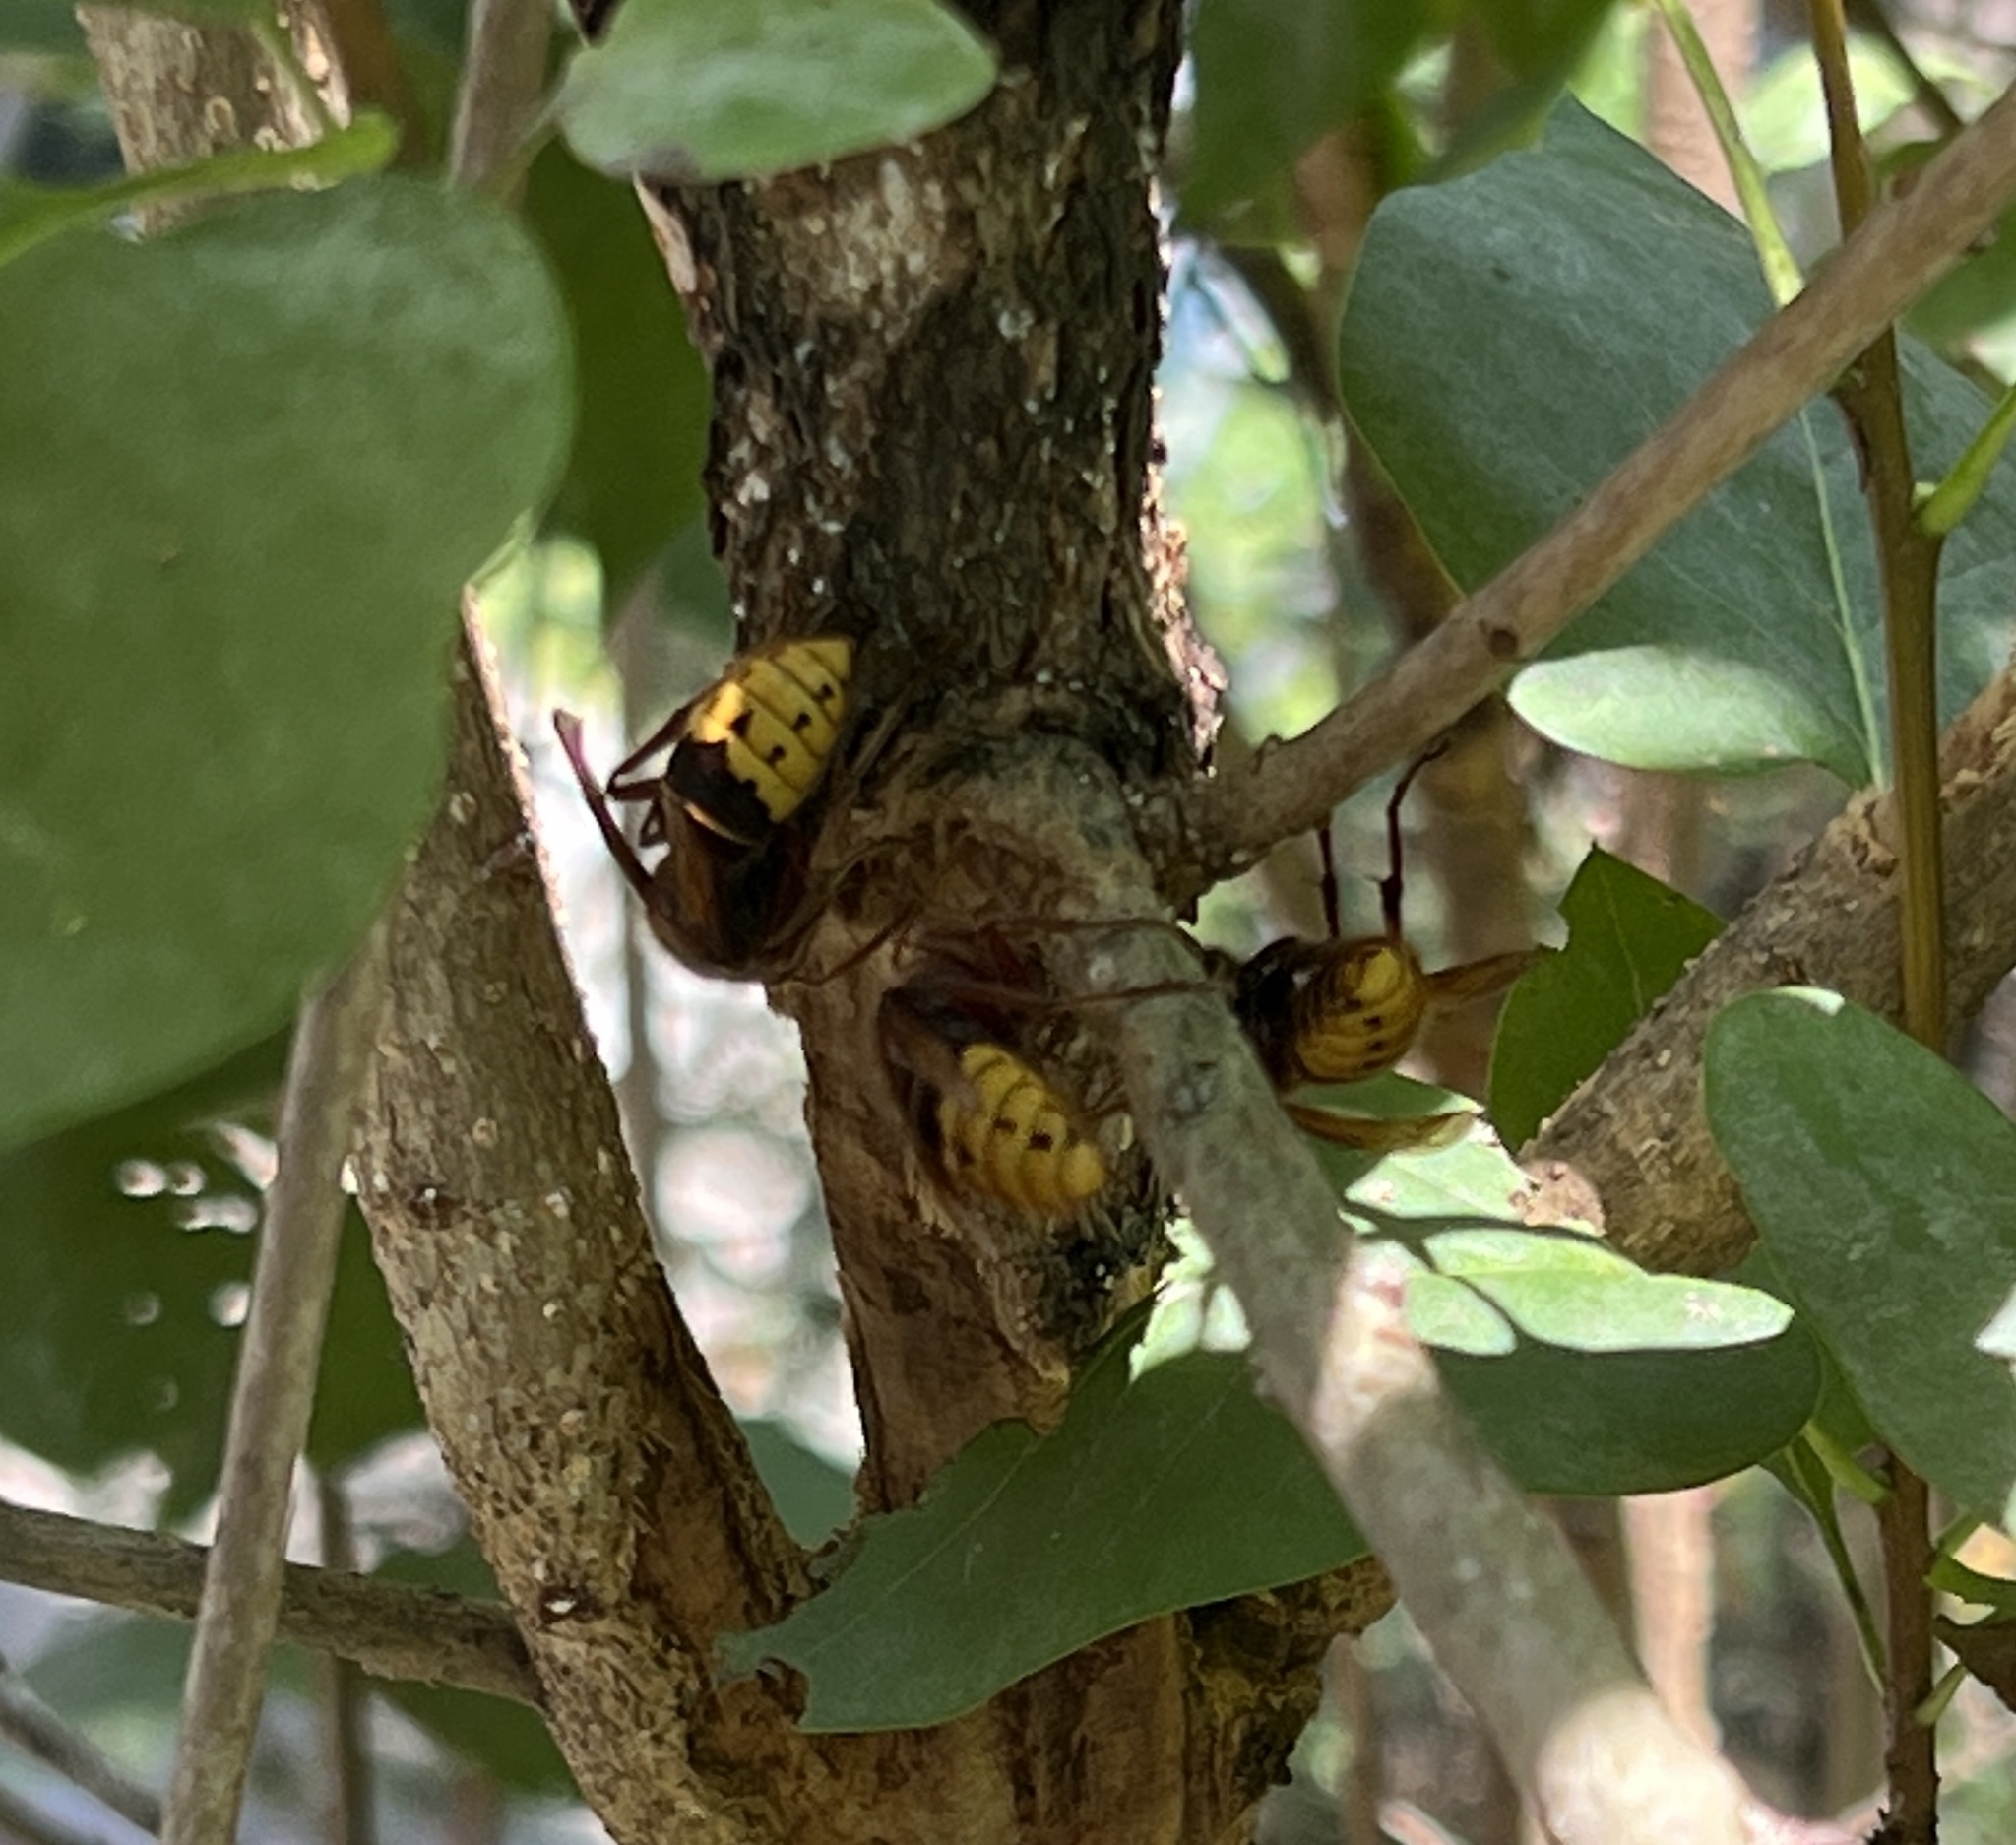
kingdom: Animalia
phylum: Arthropoda
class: Insecta
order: Hymenoptera
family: Vespidae
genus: Vespa
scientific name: Vespa crabro
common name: Hornet
